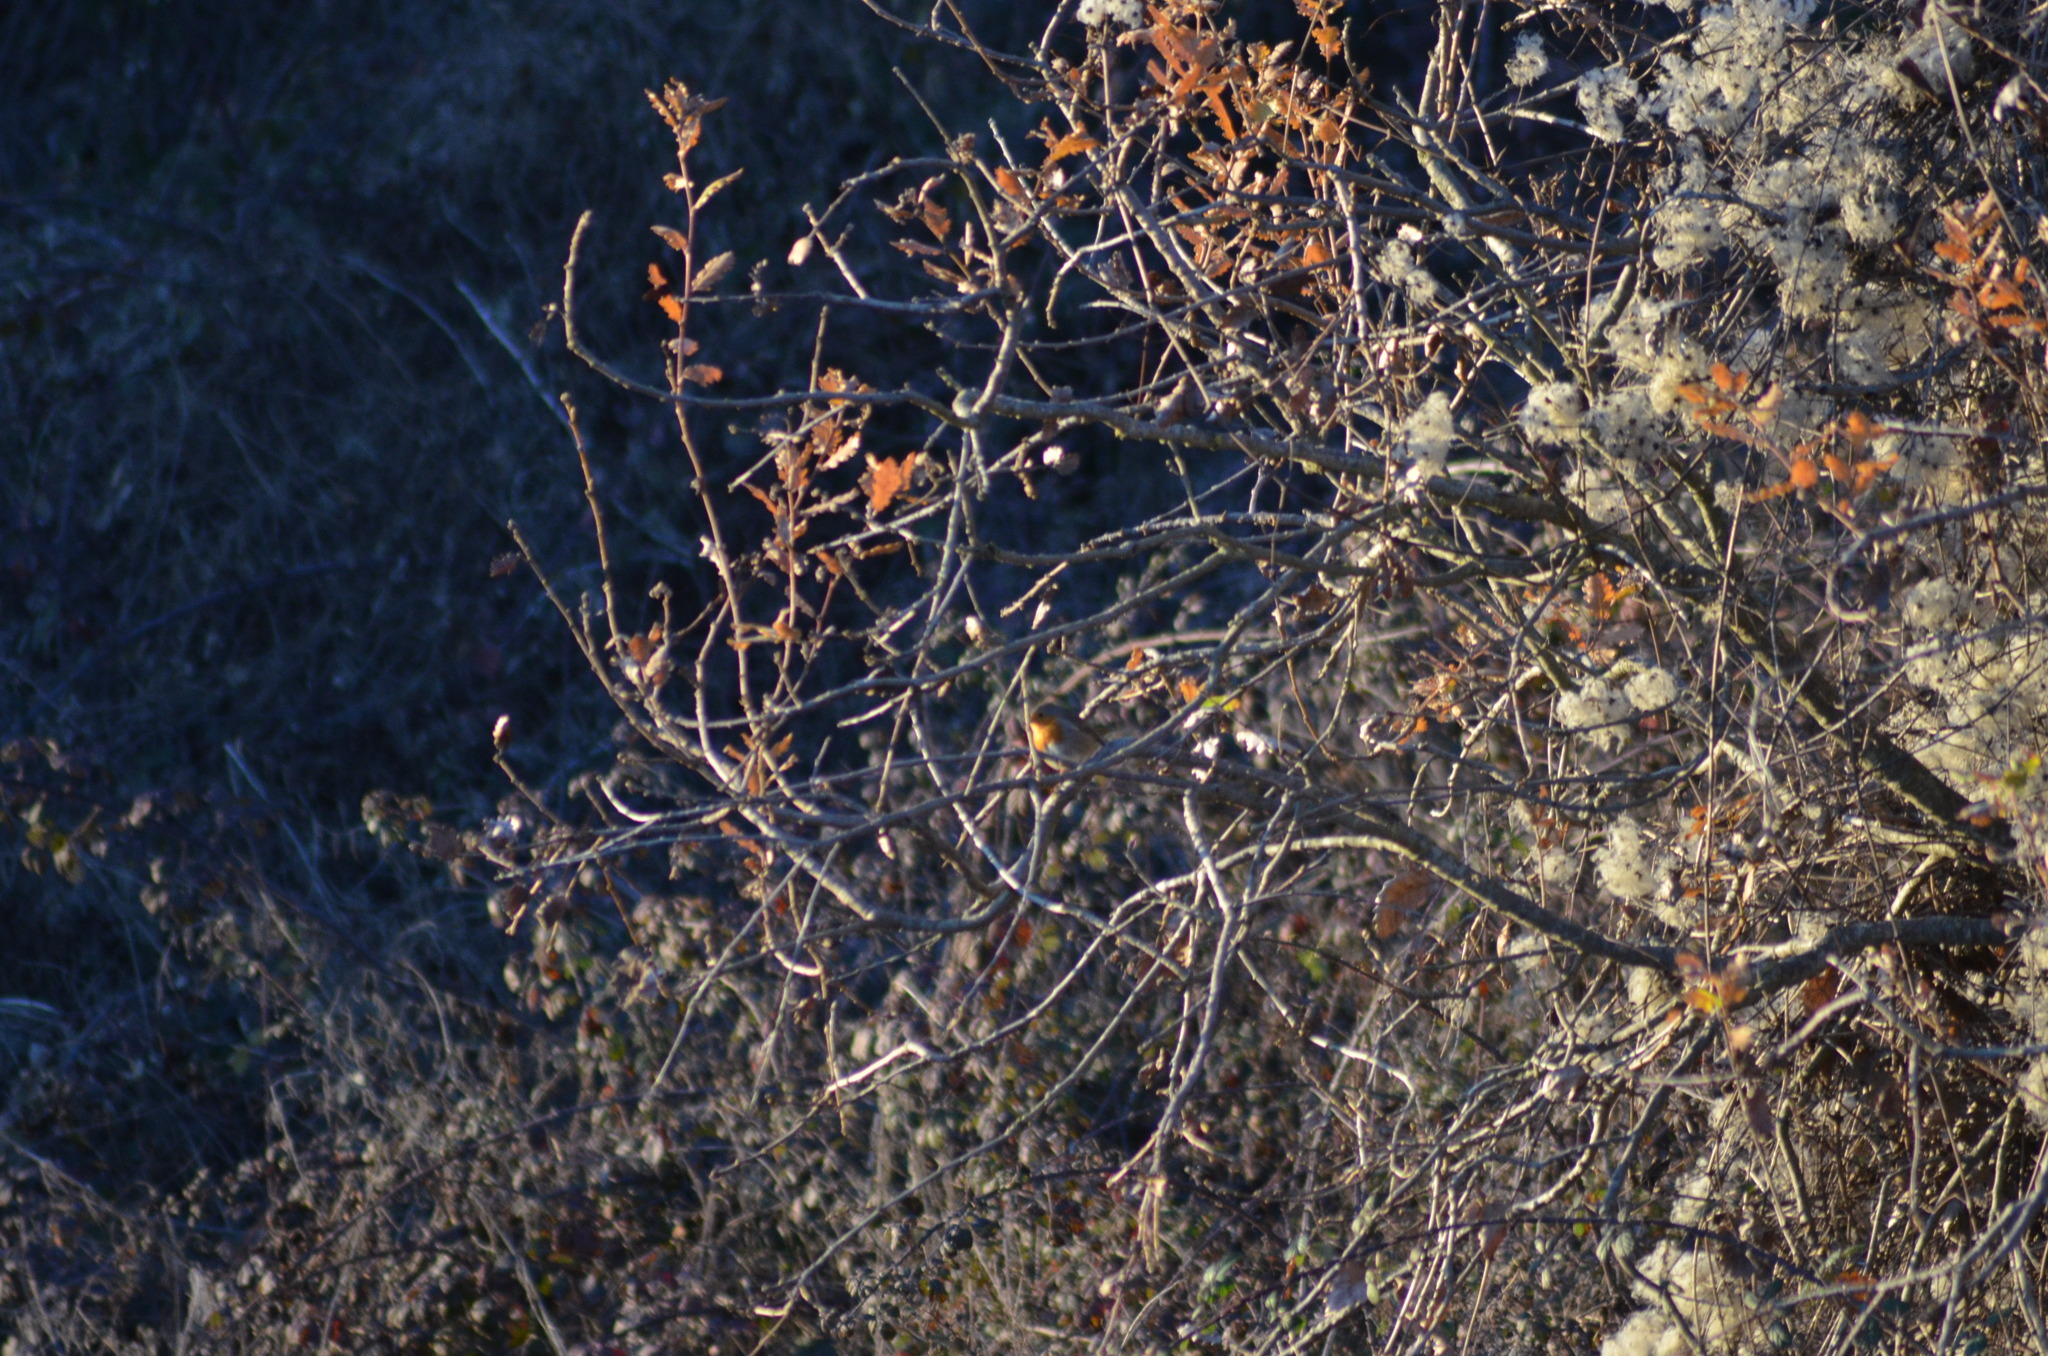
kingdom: Animalia
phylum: Chordata
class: Aves
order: Passeriformes
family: Muscicapidae
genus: Erithacus
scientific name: Erithacus rubecula
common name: European robin
